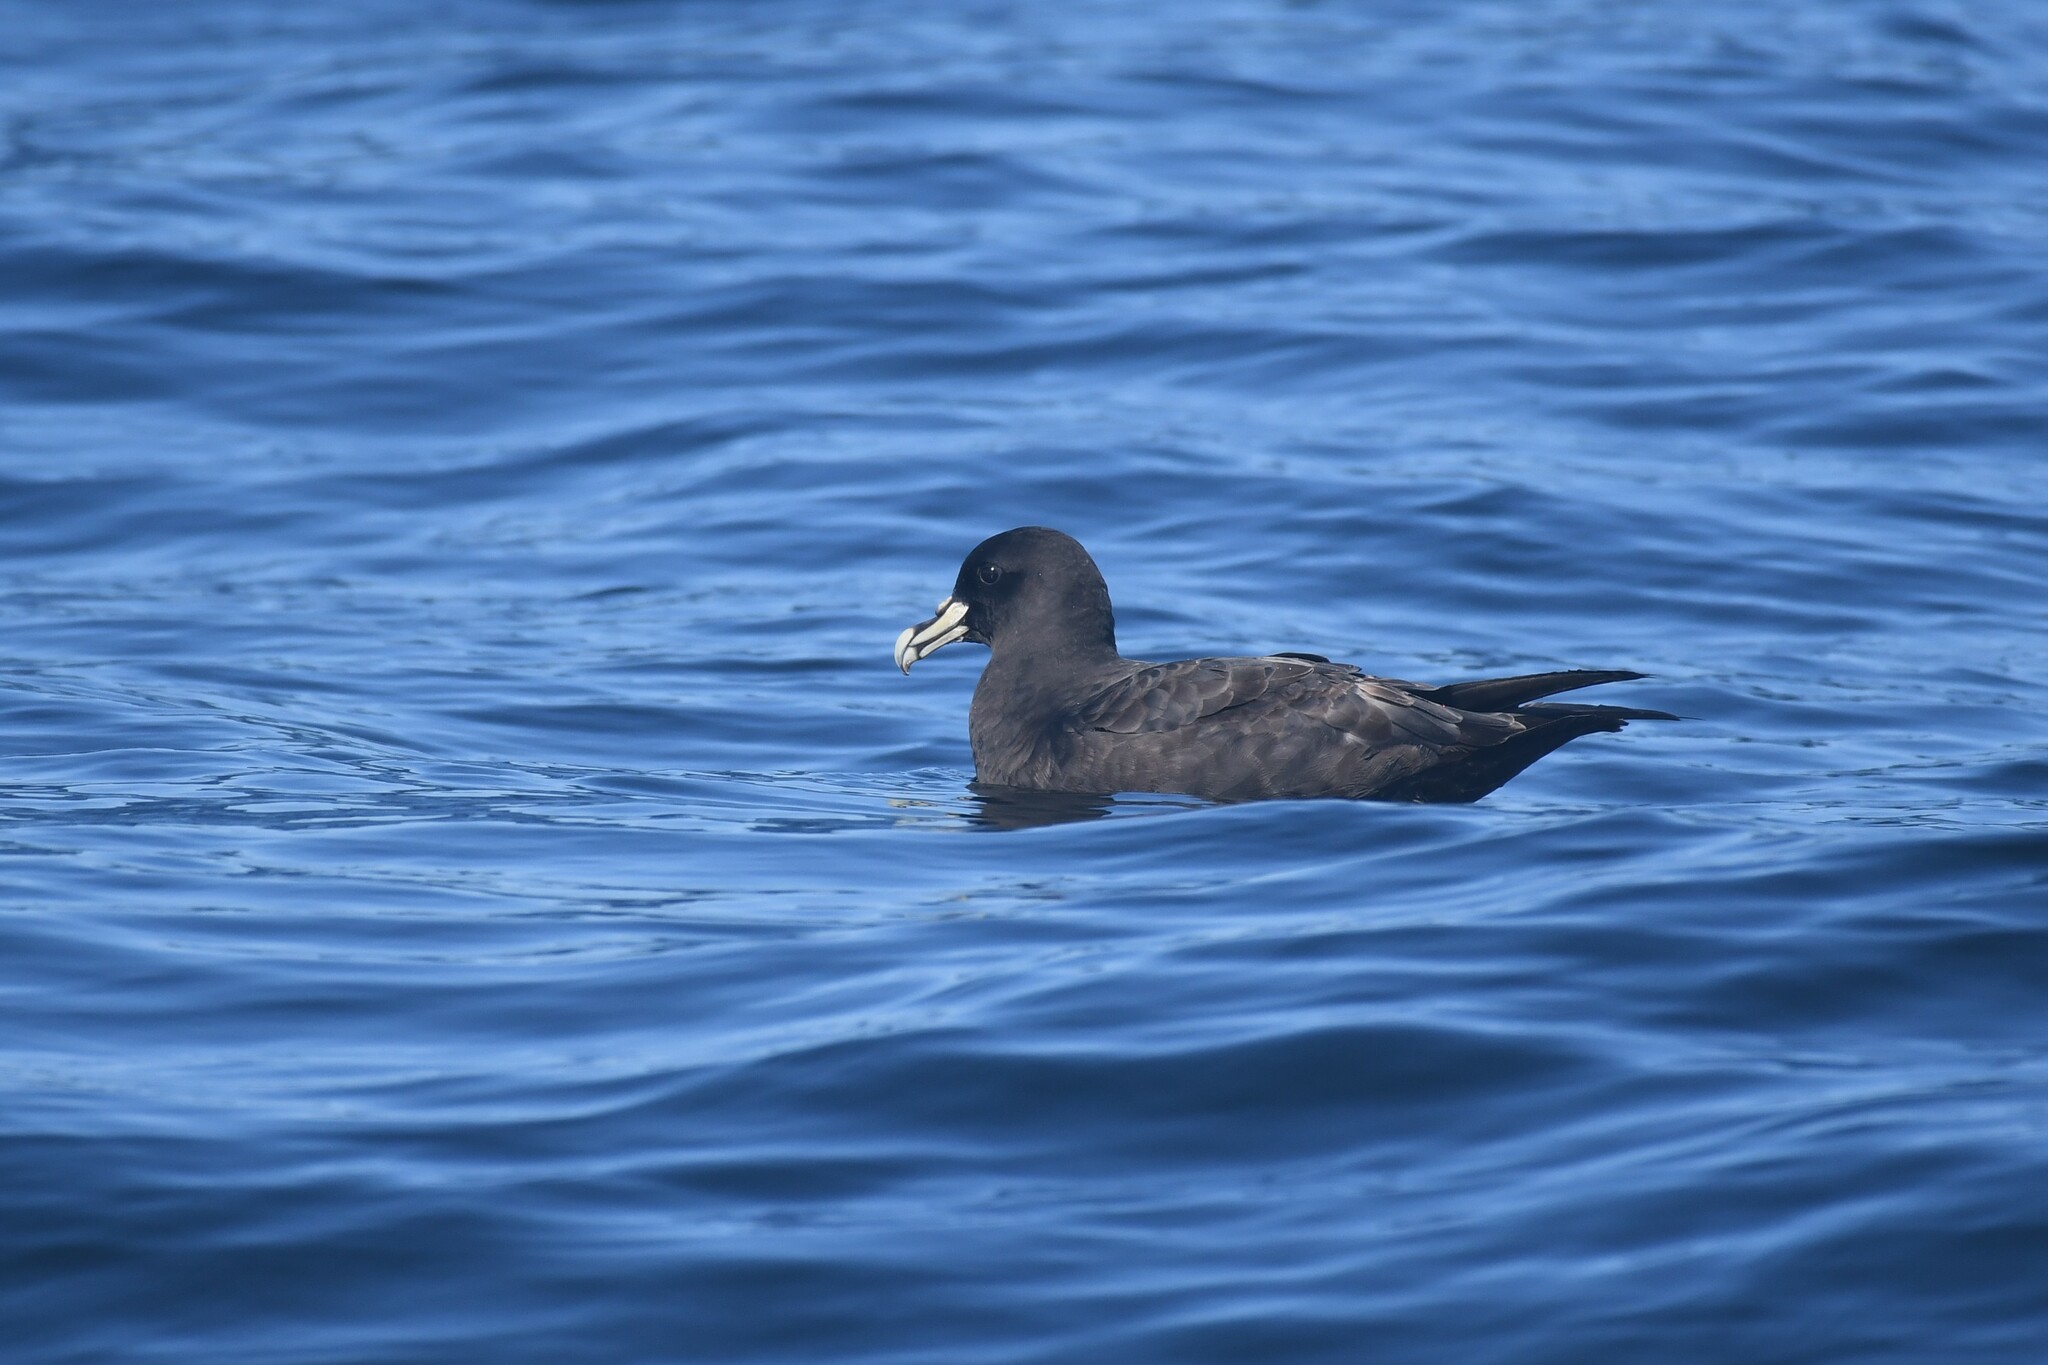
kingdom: Animalia
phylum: Chordata
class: Aves
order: Procellariiformes
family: Procellariidae
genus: Procellaria
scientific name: Procellaria aequinoctialis
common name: White-chinned petrel
